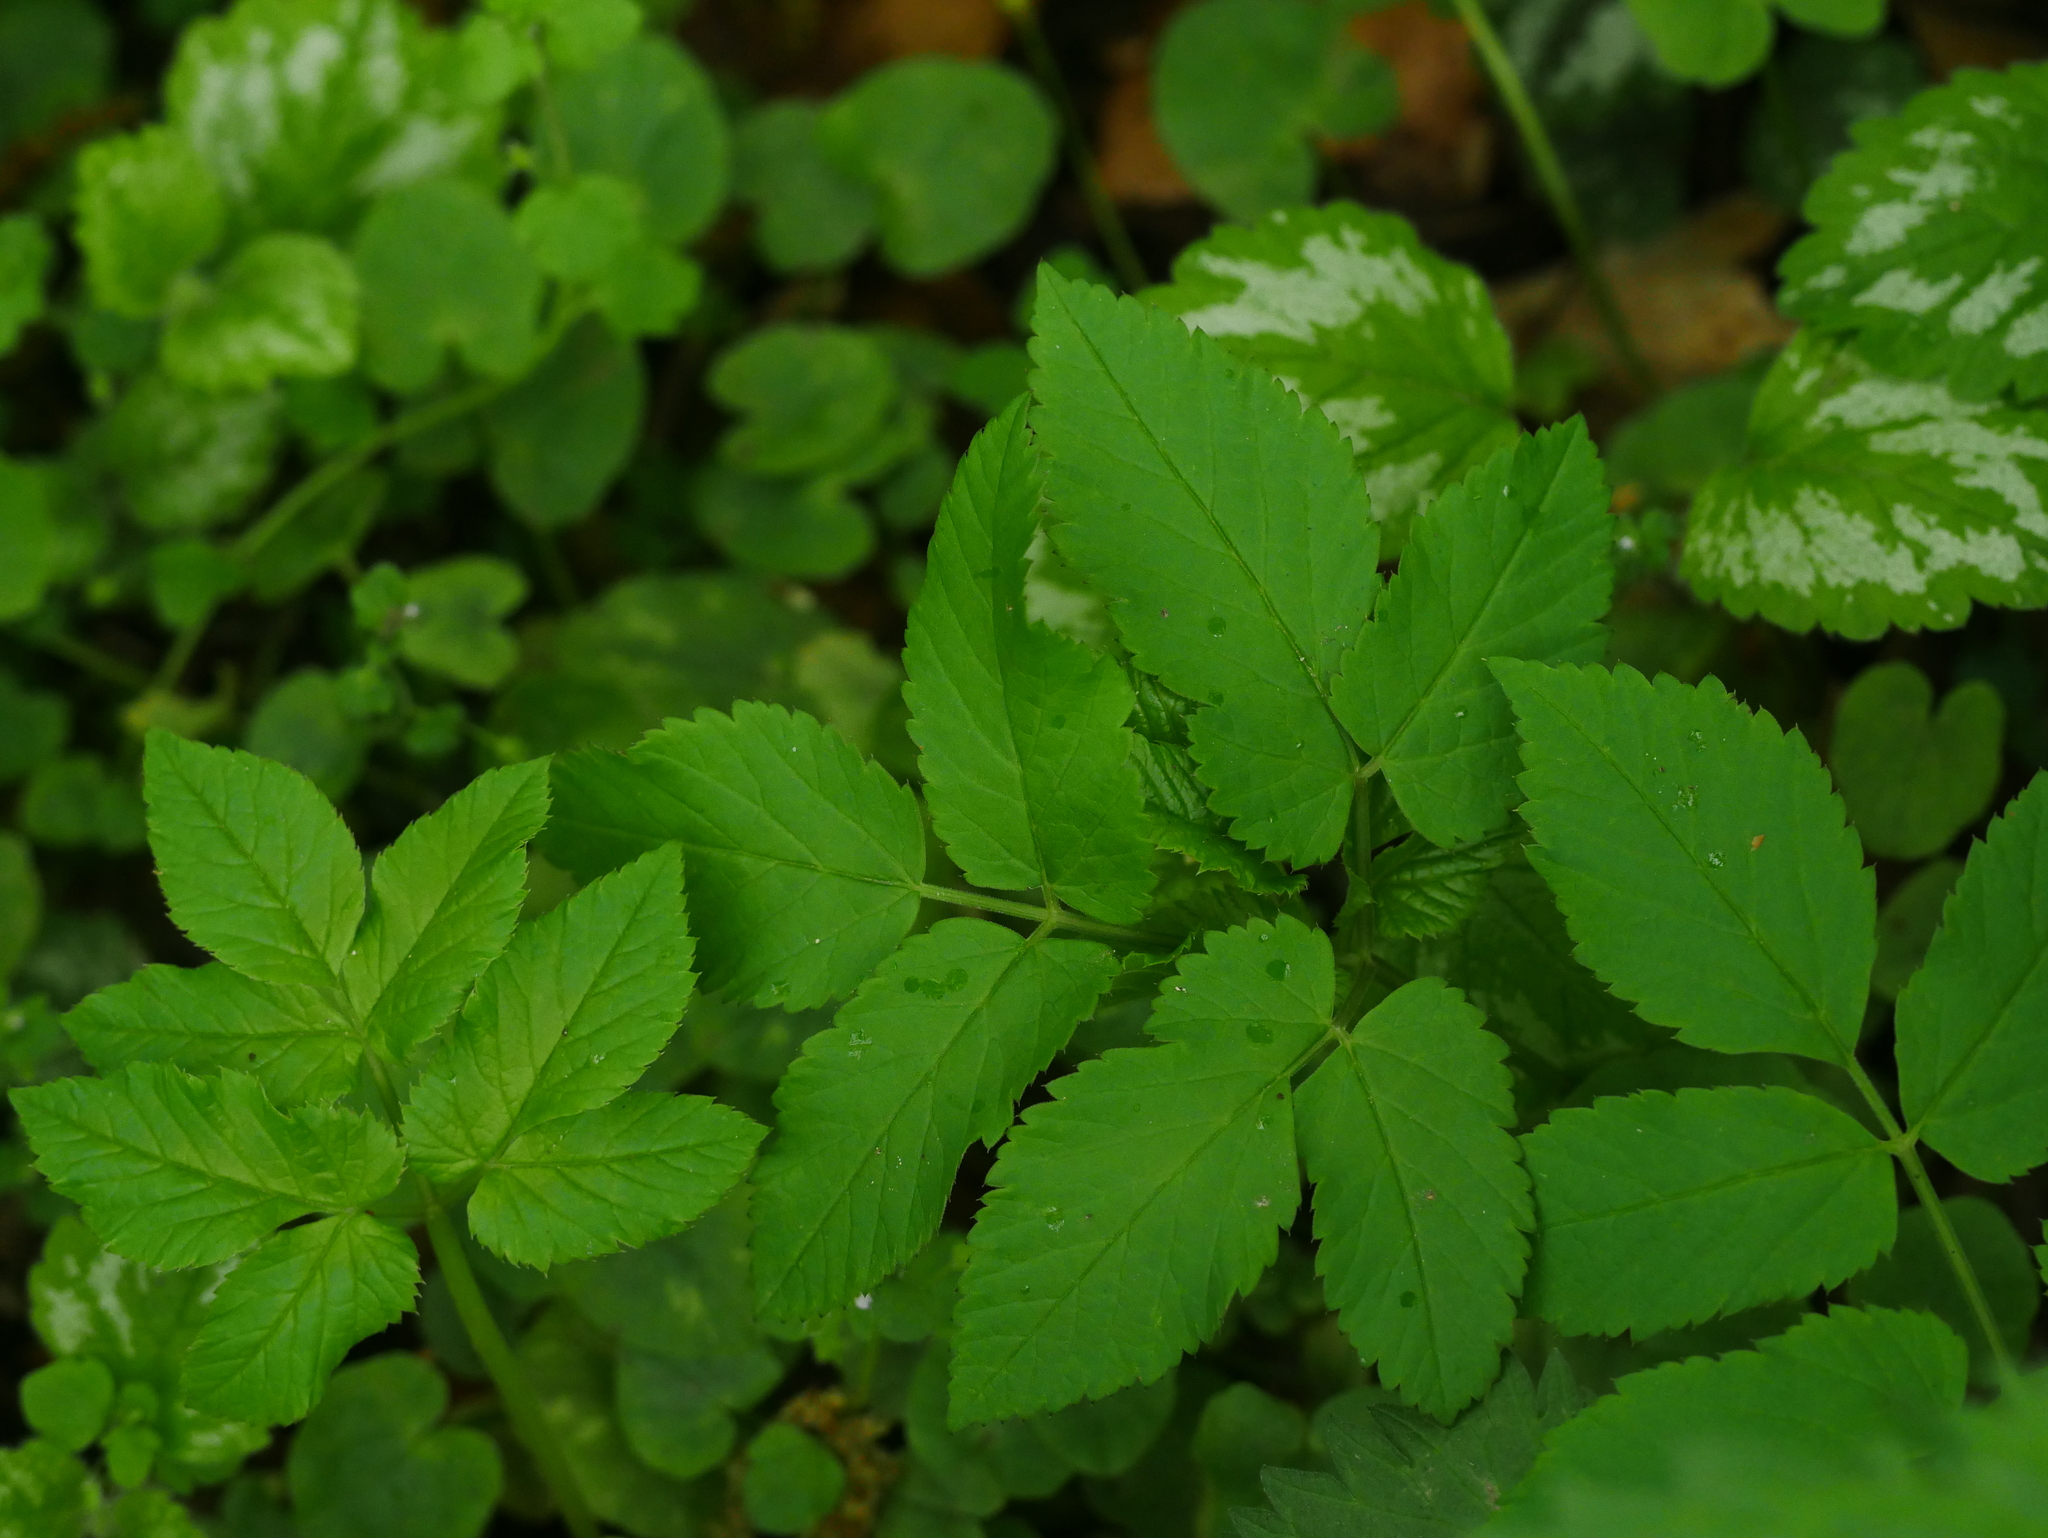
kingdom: Plantae
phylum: Tracheophyta
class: Magnoliopsida
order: Apiales
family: Apiaceae
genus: Aegopodium
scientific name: Aegopodium podagraria
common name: Ground-elder
